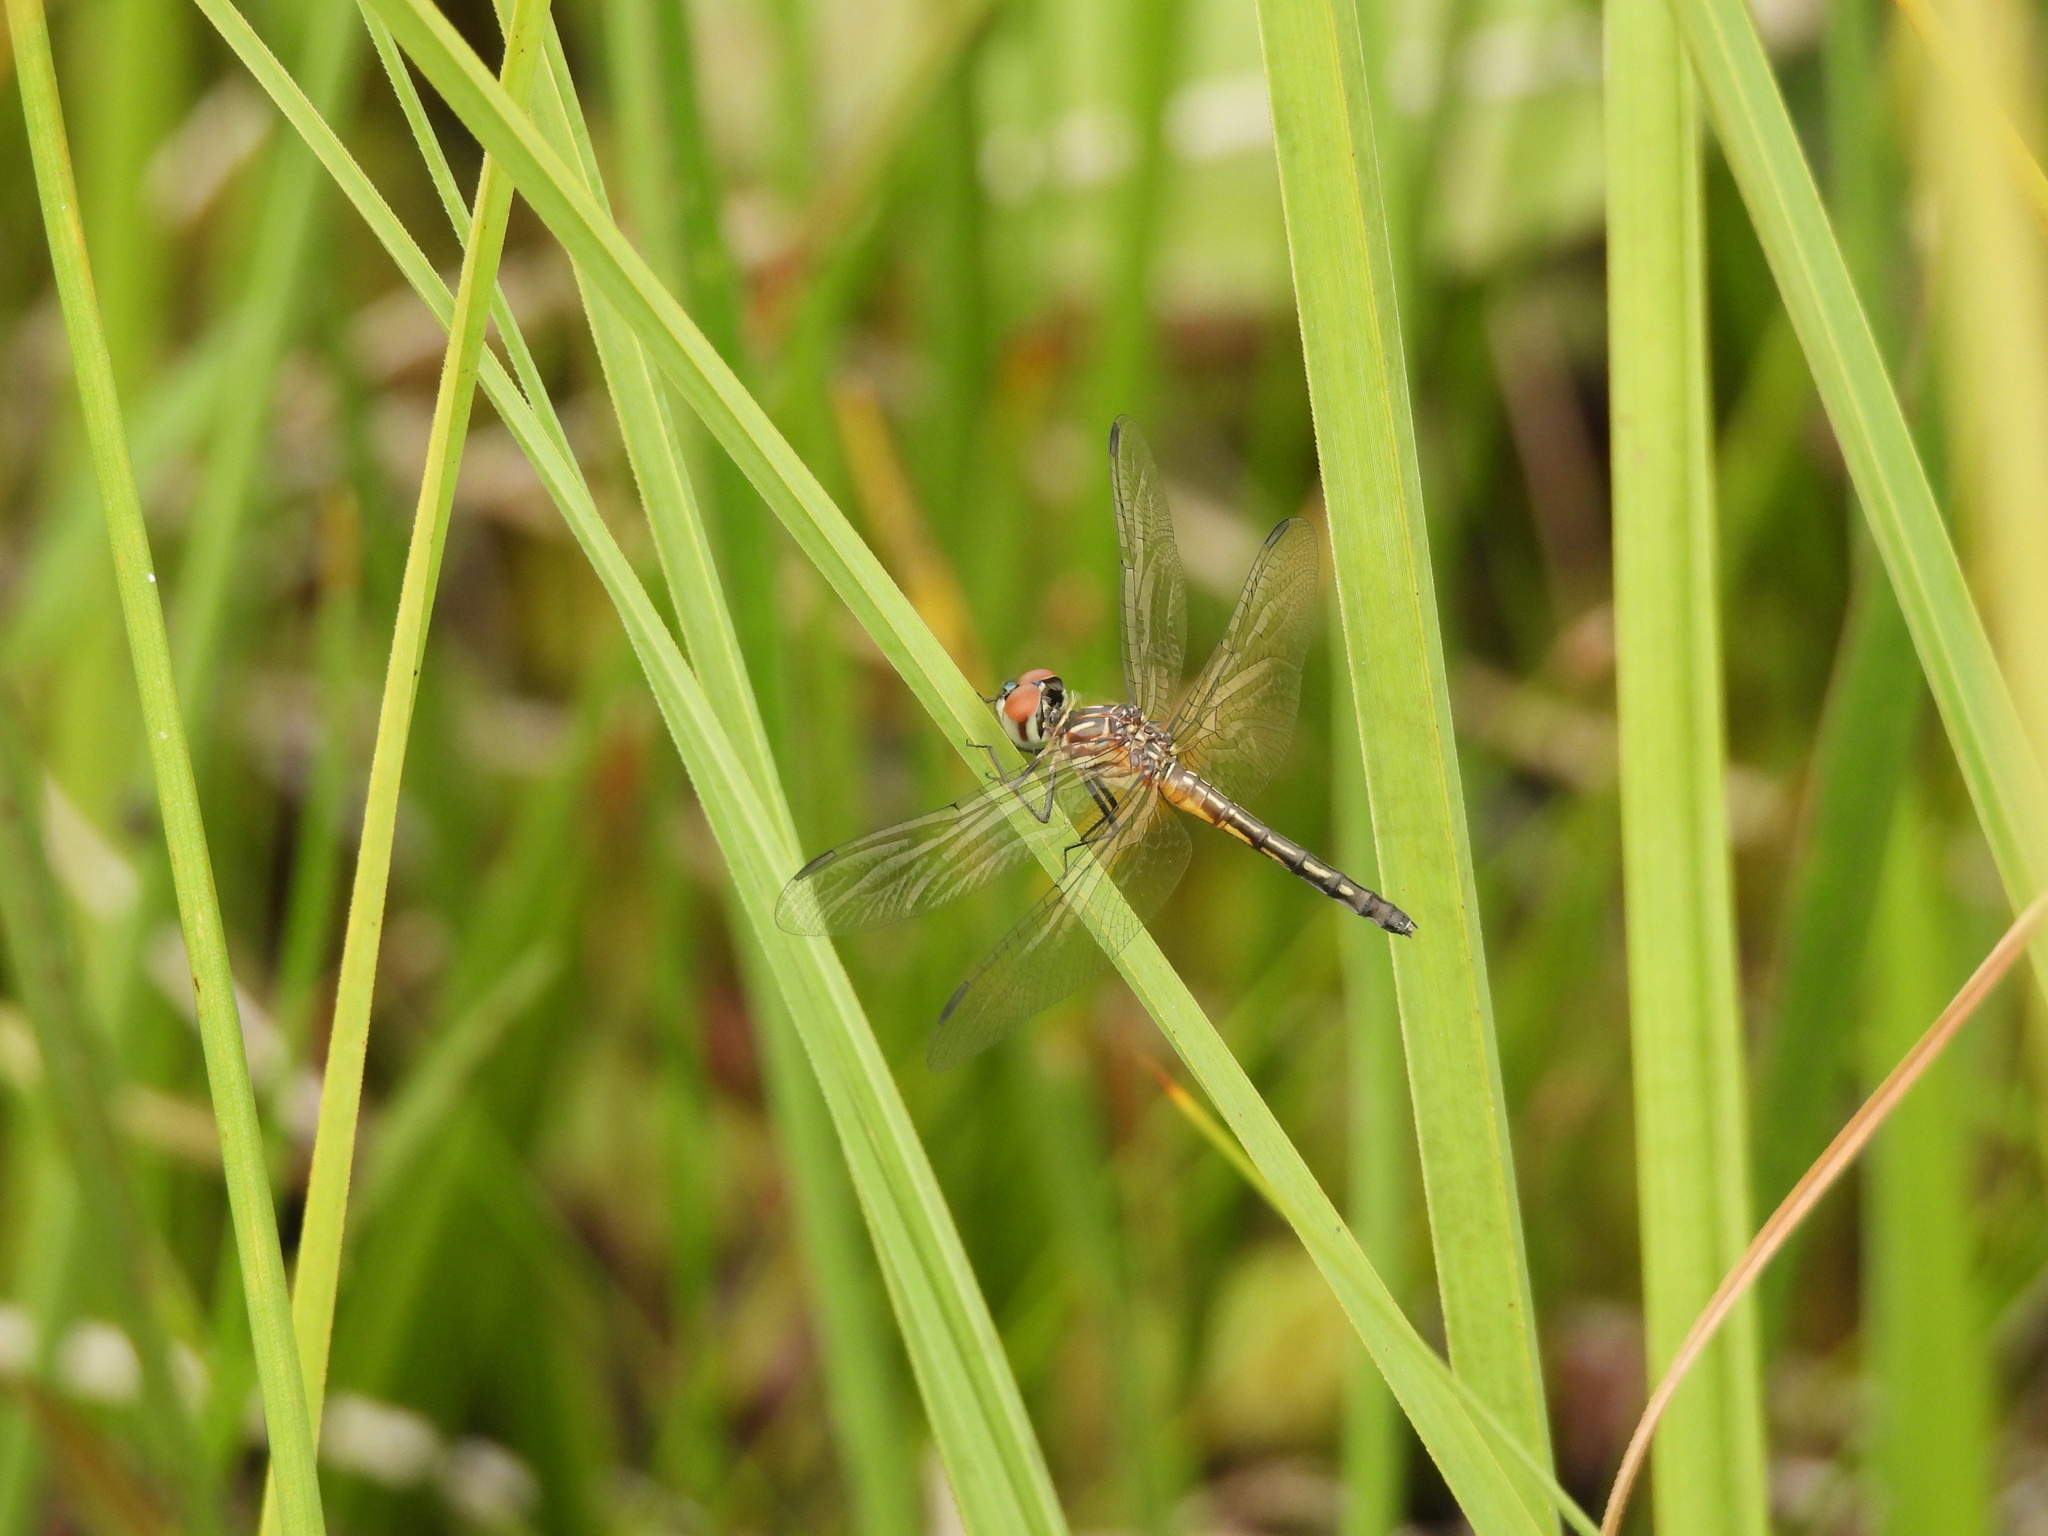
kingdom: Animalia
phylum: Arthropoda
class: Insecta
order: Odonata
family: Libellulidae
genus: Pachydiplax
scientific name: Pachydiplax longipennis
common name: Blue dasher
